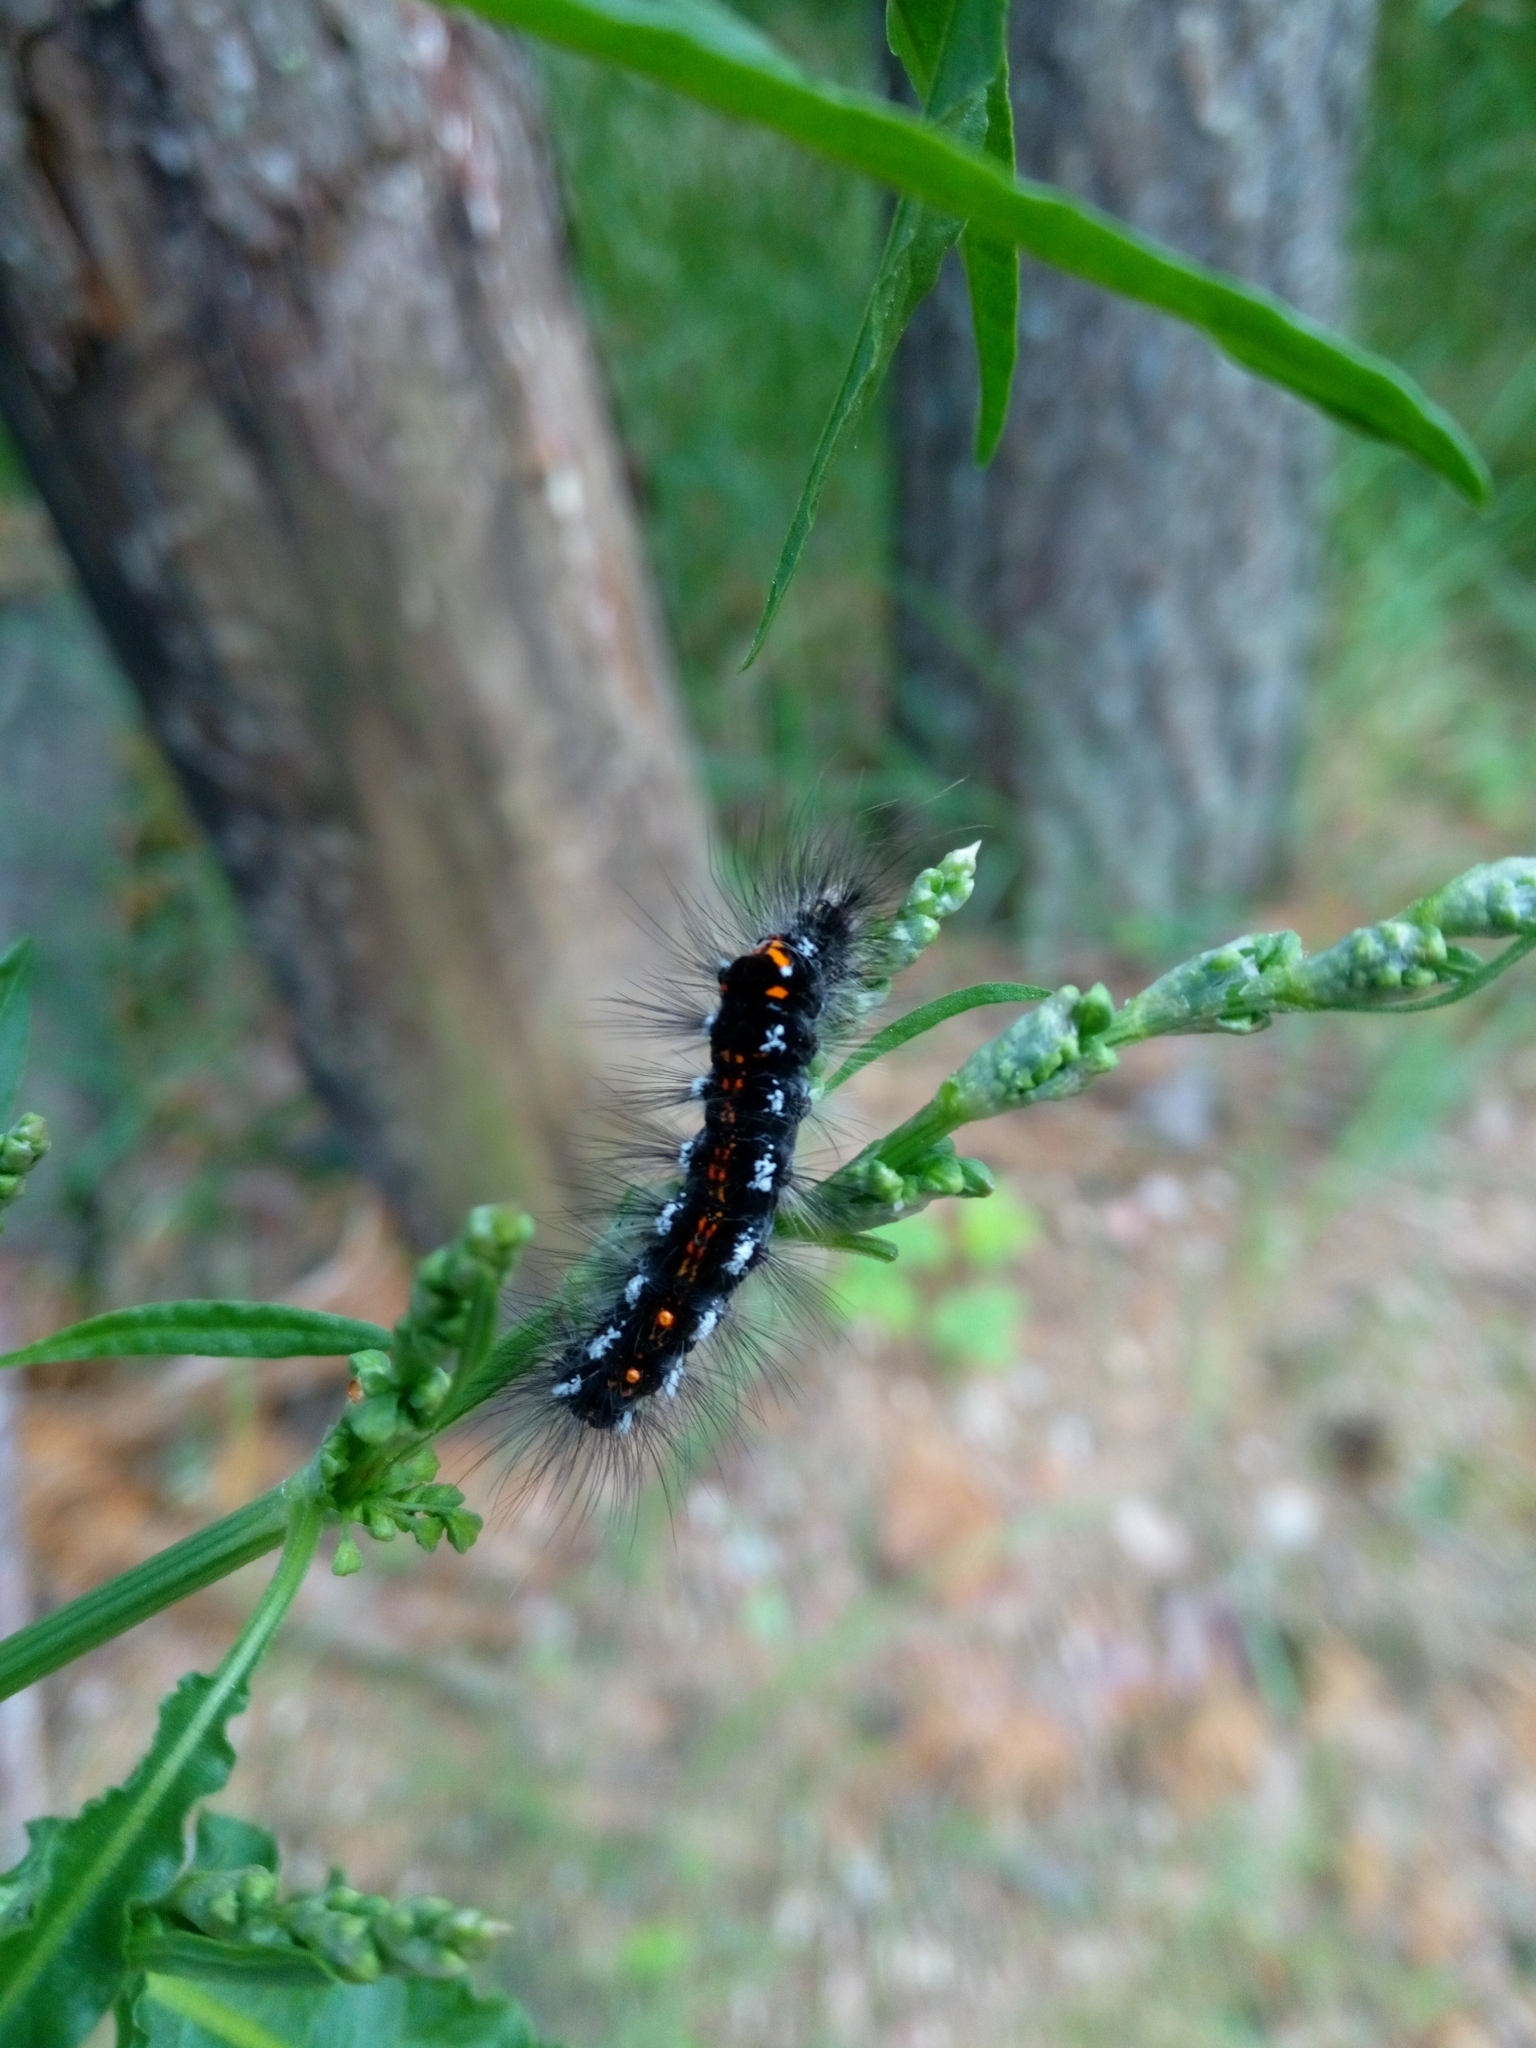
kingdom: Animalia
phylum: Arthropoda
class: Insecta
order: Lepidoptera
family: Erebidae
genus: Sphrageidus
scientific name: Sphrageidus similis
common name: Yellow-tail
